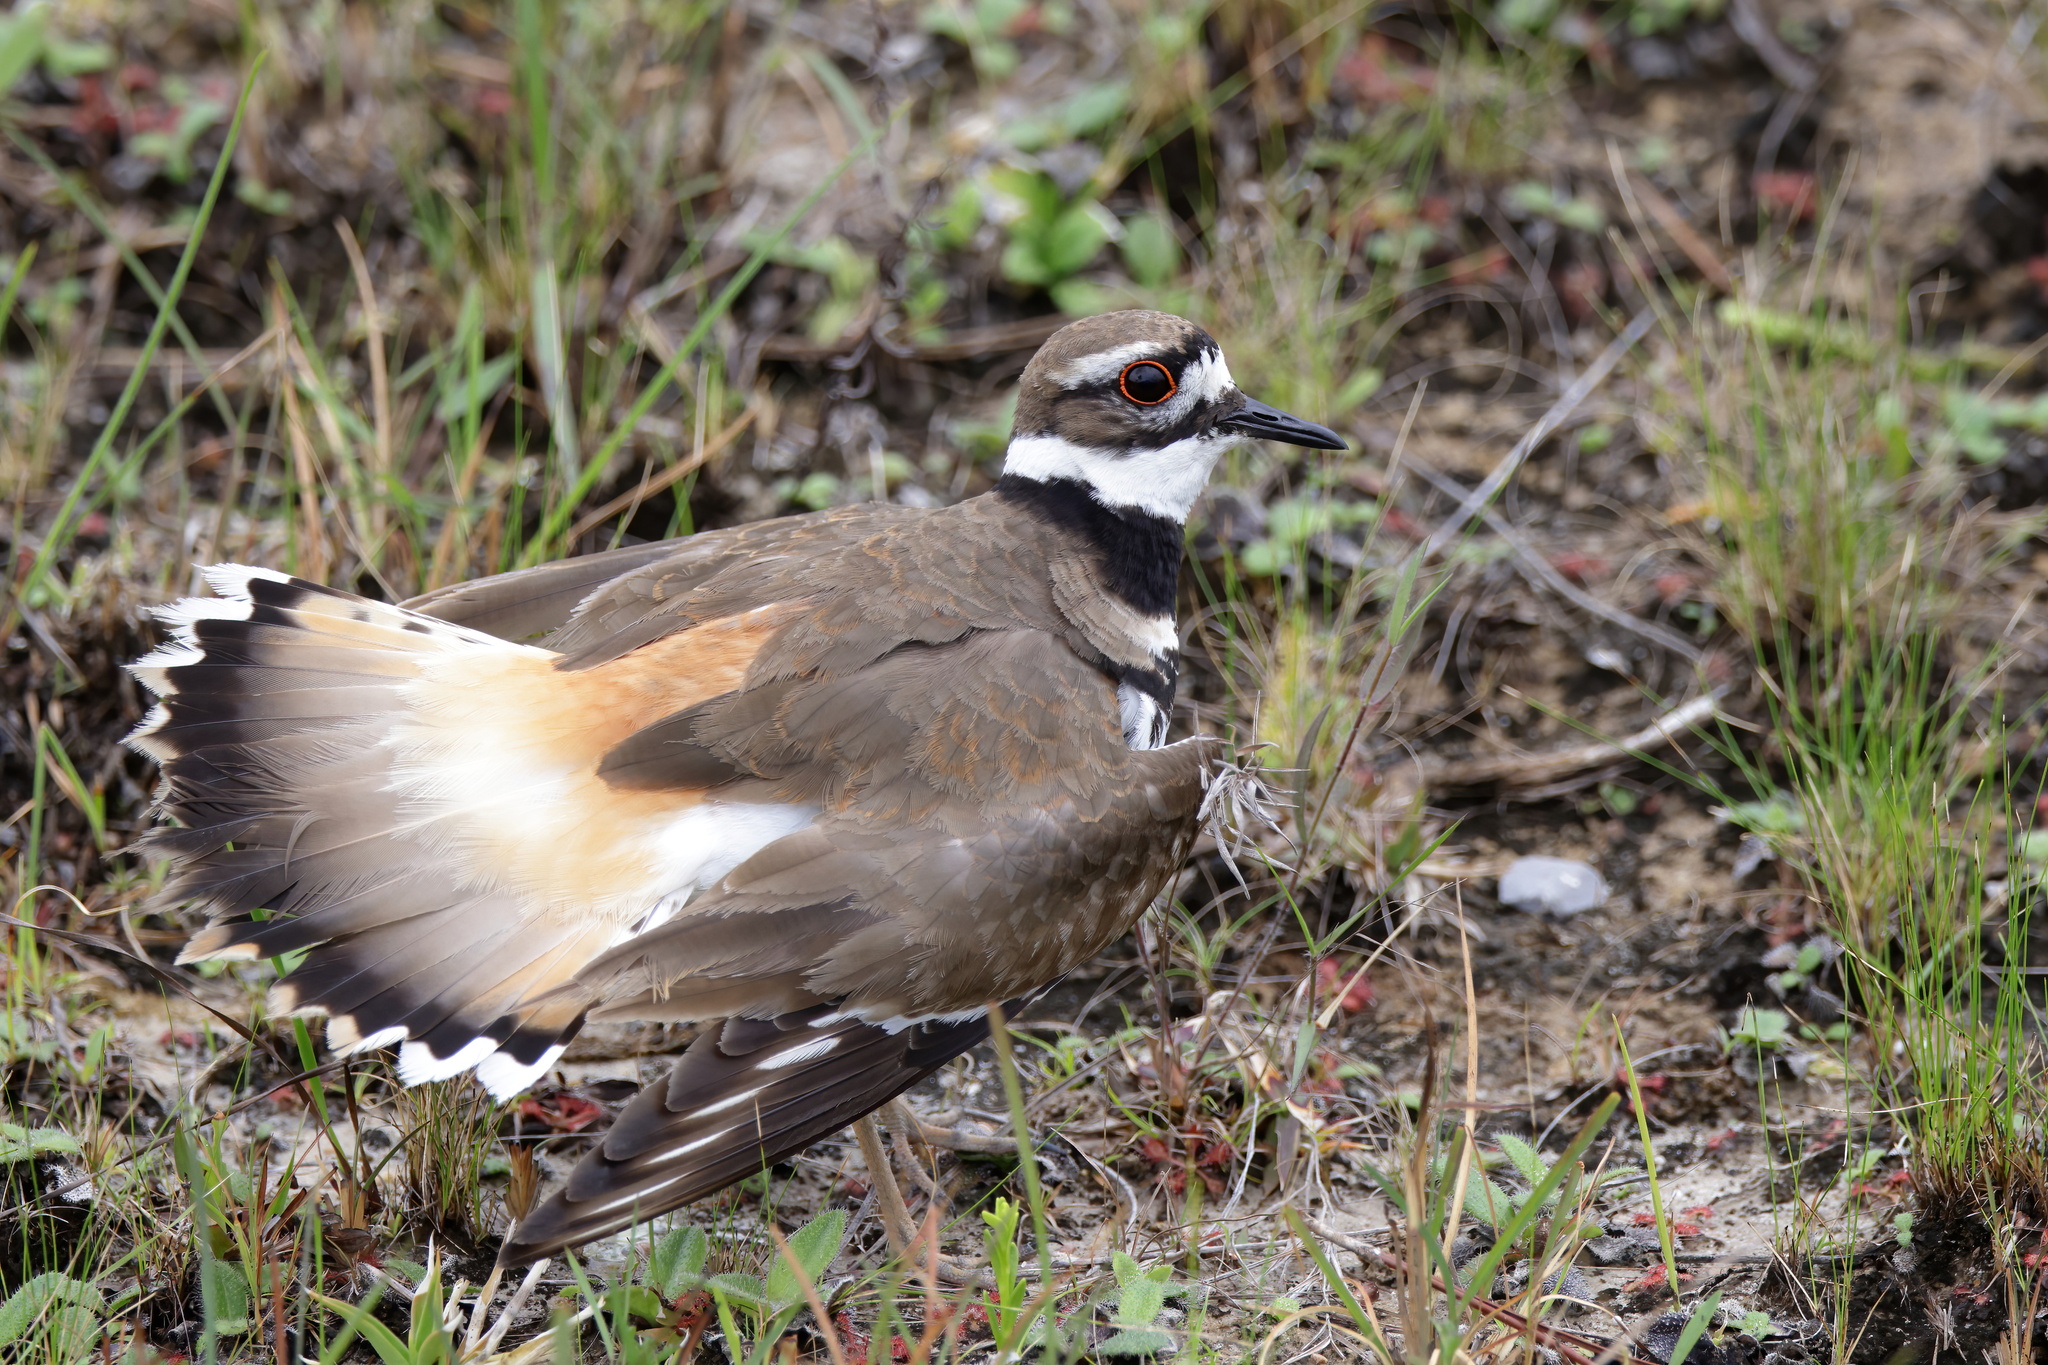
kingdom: Animalia
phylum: Chordata
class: Aves
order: Charadriiformes
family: Charadriidae
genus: Charadrius
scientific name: Charadrius vociferus
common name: Killdeer
